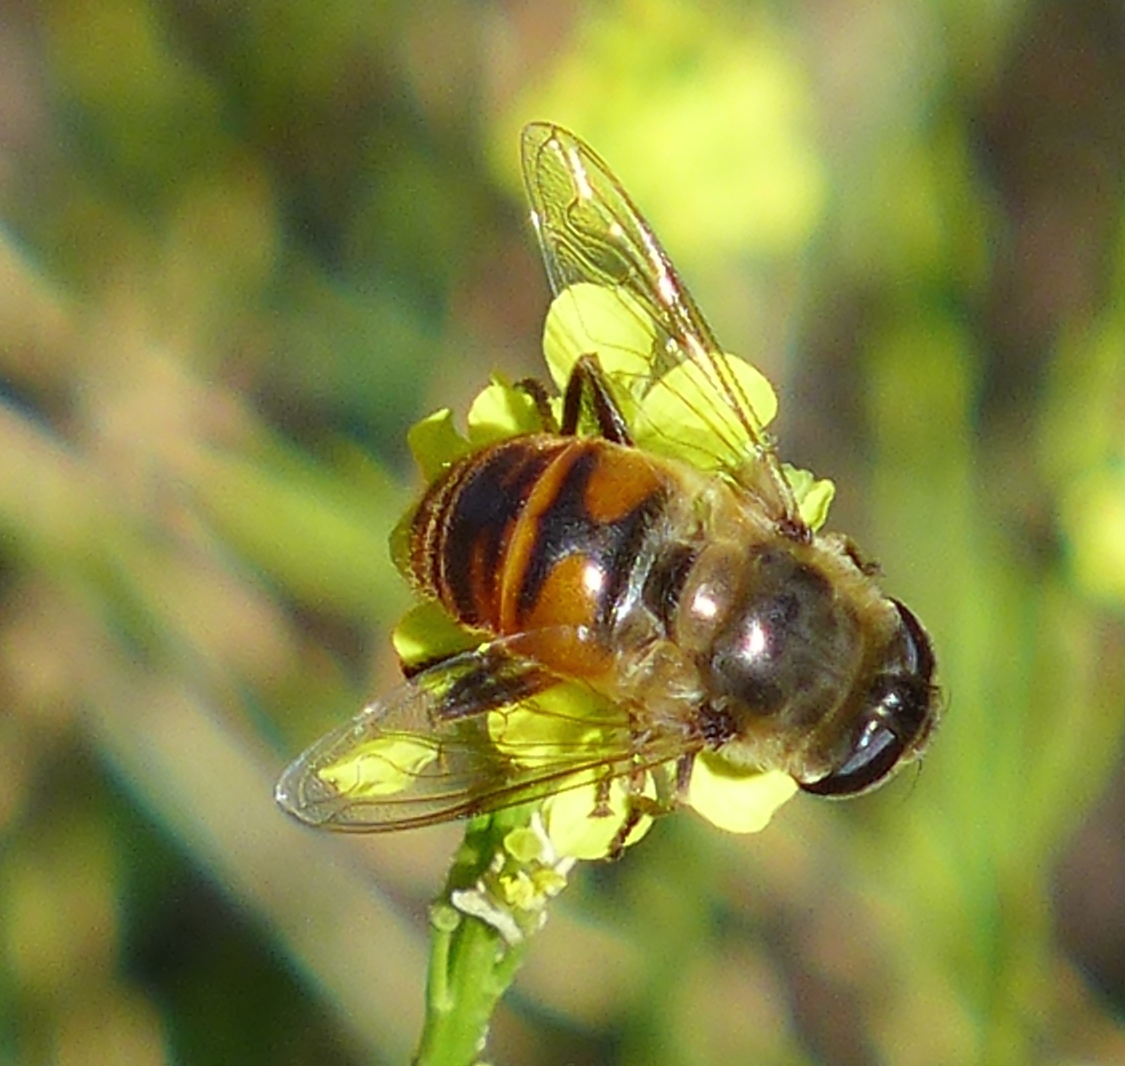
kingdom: Animalia
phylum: Arthropoda
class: Insecta
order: Diptera
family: Syrphidae
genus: Eristalis
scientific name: Eristalis tenax
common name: Drone fly
